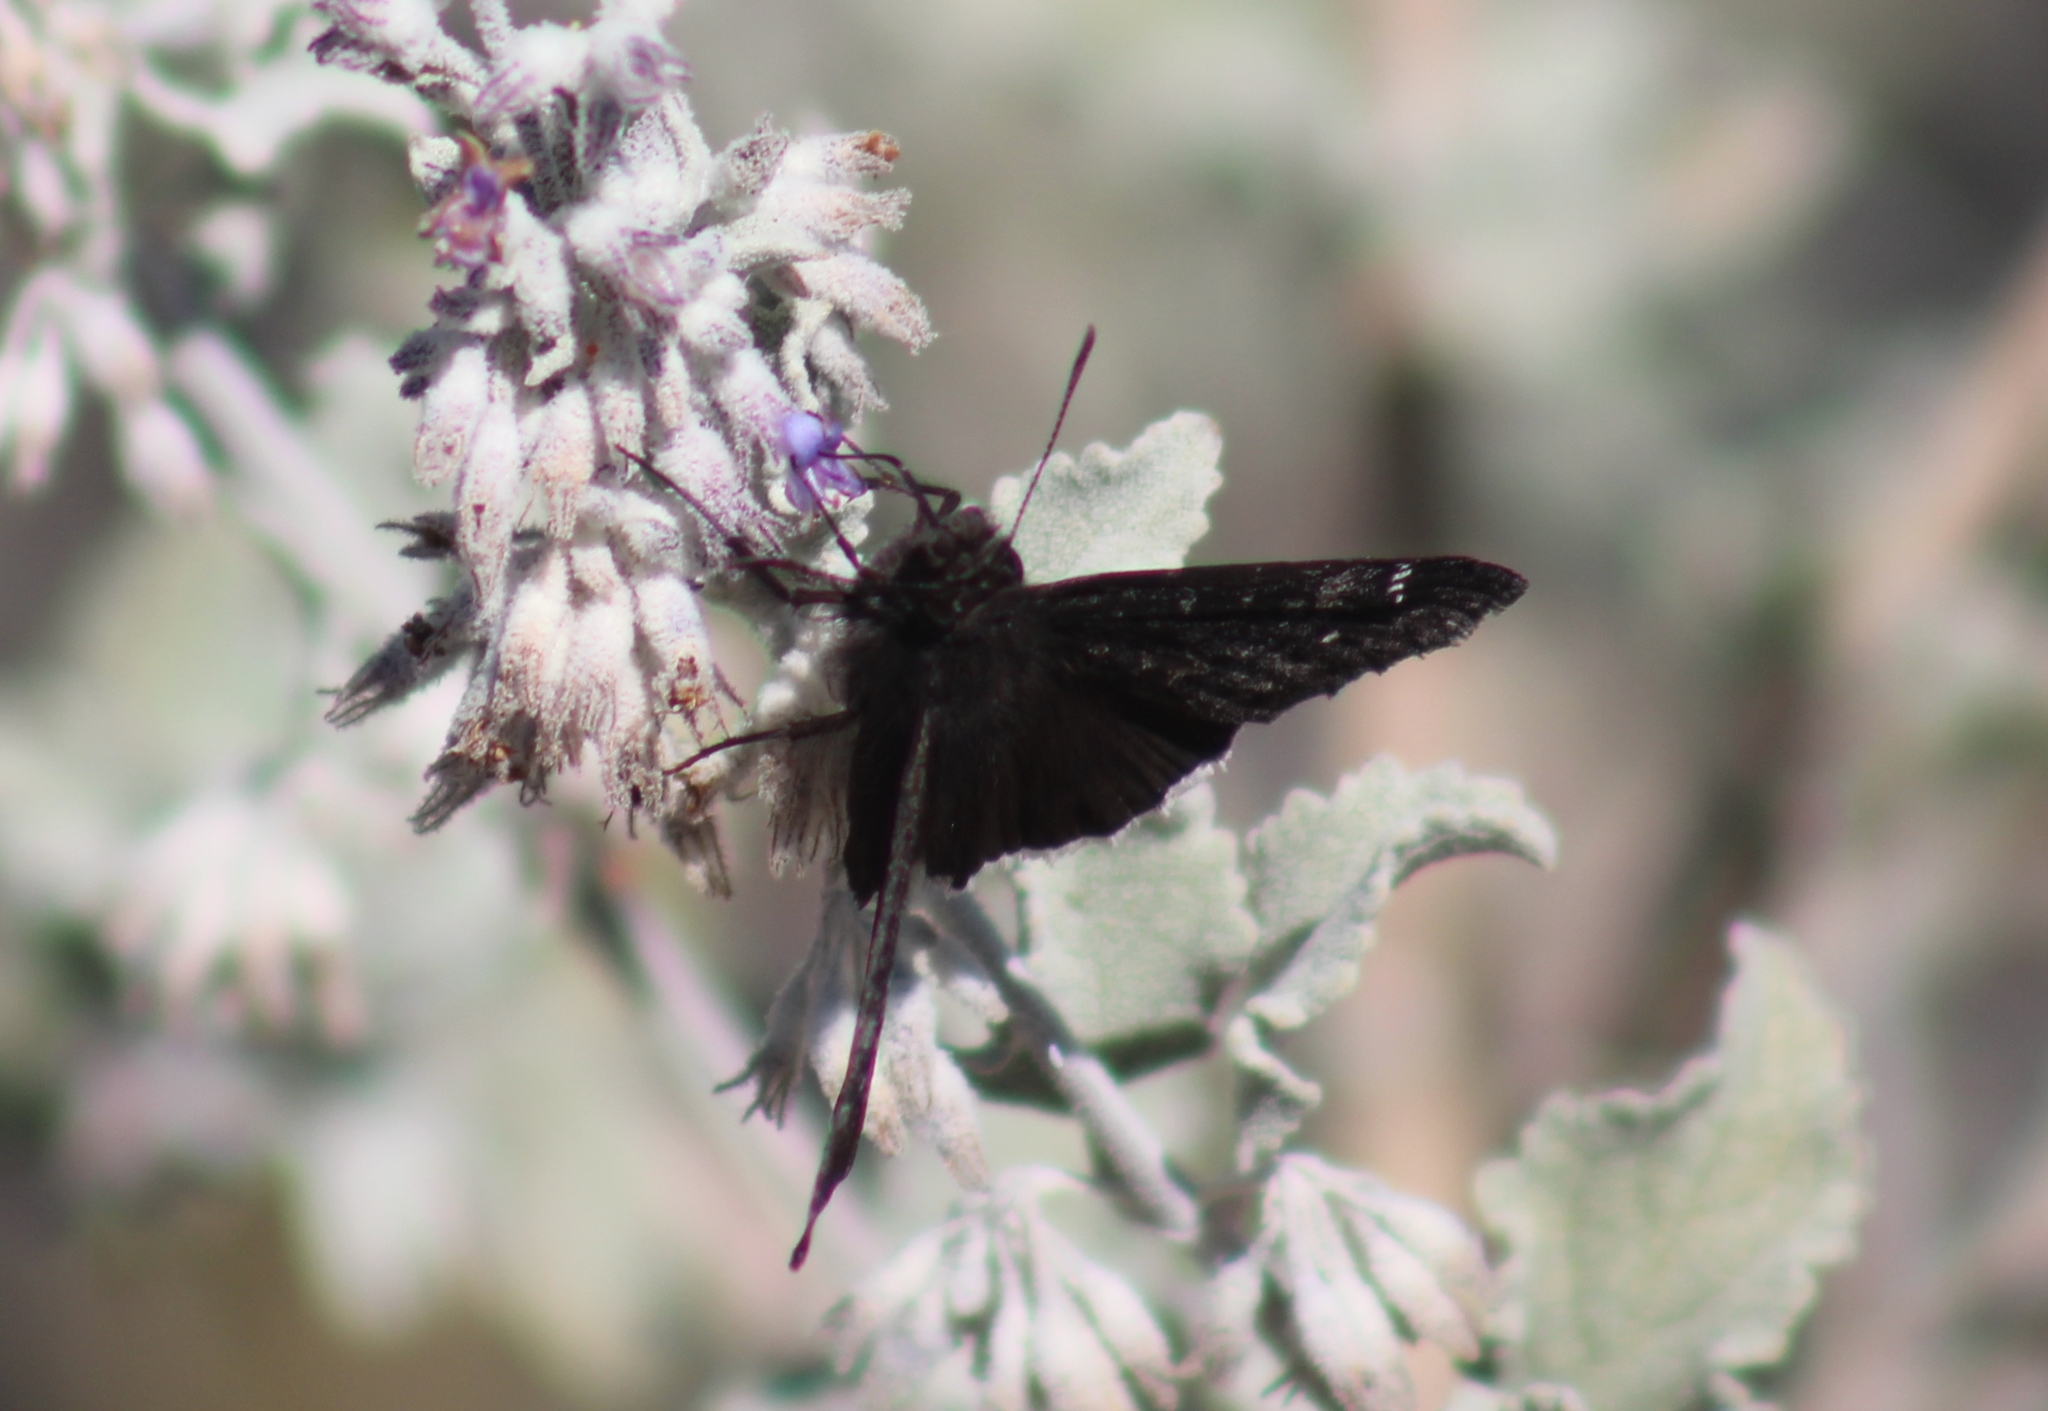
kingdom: Animalia
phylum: Arthropoda
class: Insecta
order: Lepidoptera
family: Hesperiidae
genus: Erynnis
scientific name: Erynnis funeralis
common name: Funereal duskywing
